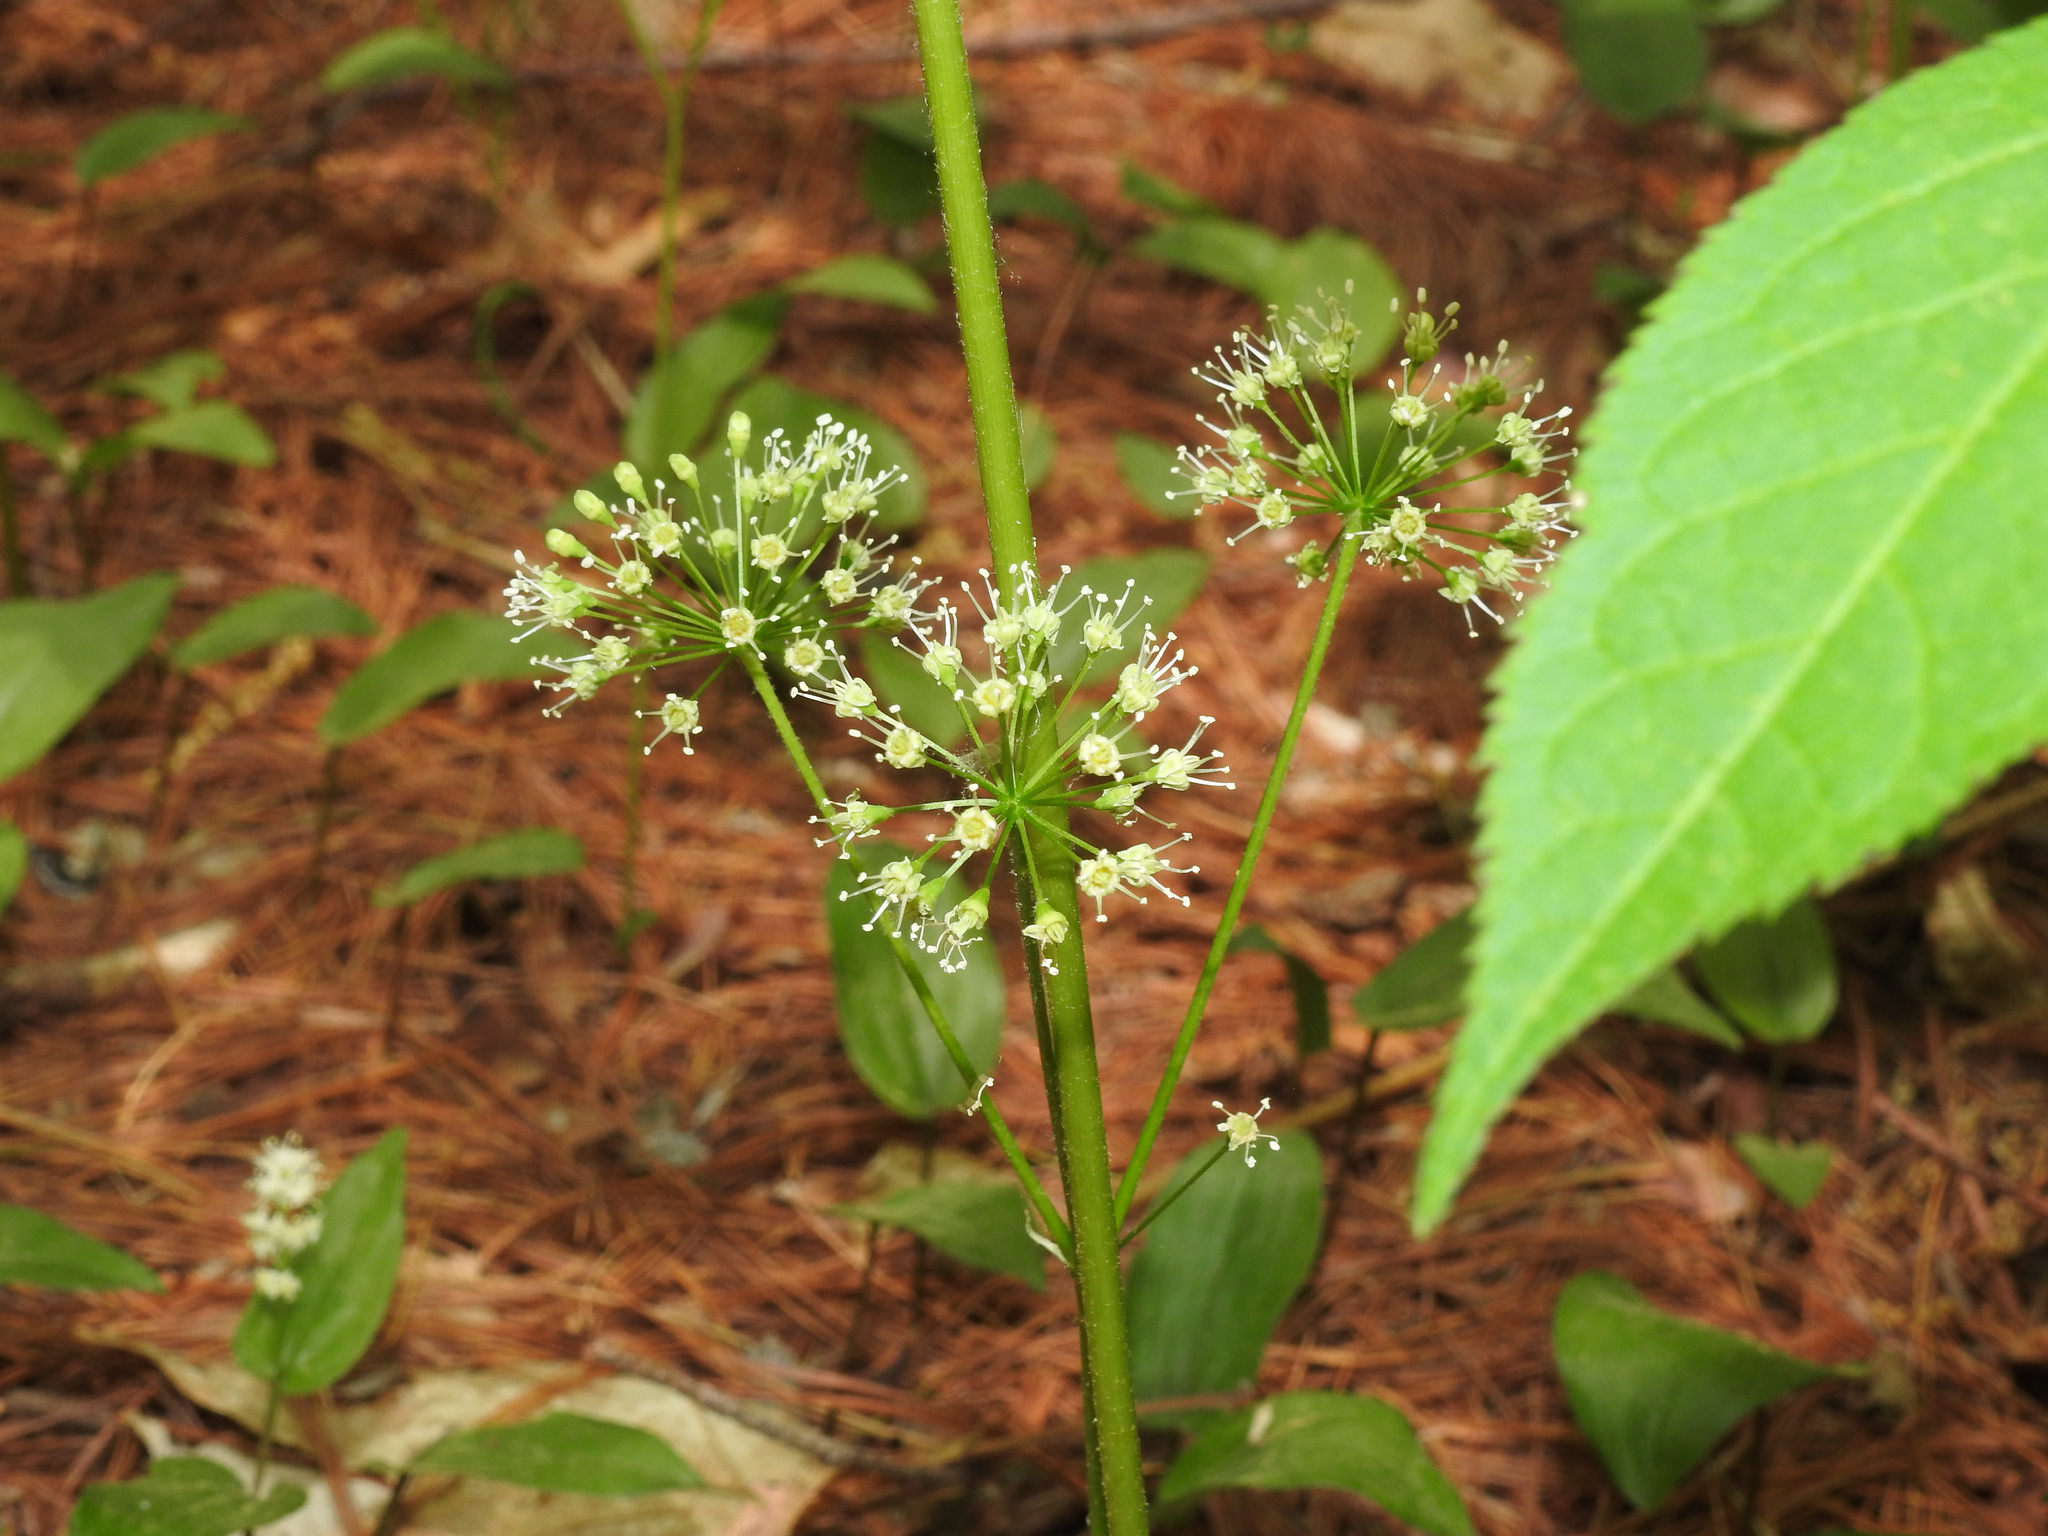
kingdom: Plantae
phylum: Tracheophyta
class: Magnoliopsida
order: Apiales
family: Araliaceae
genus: Aralia
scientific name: Aralia nudicaulis
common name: Wild sarsaparilla
